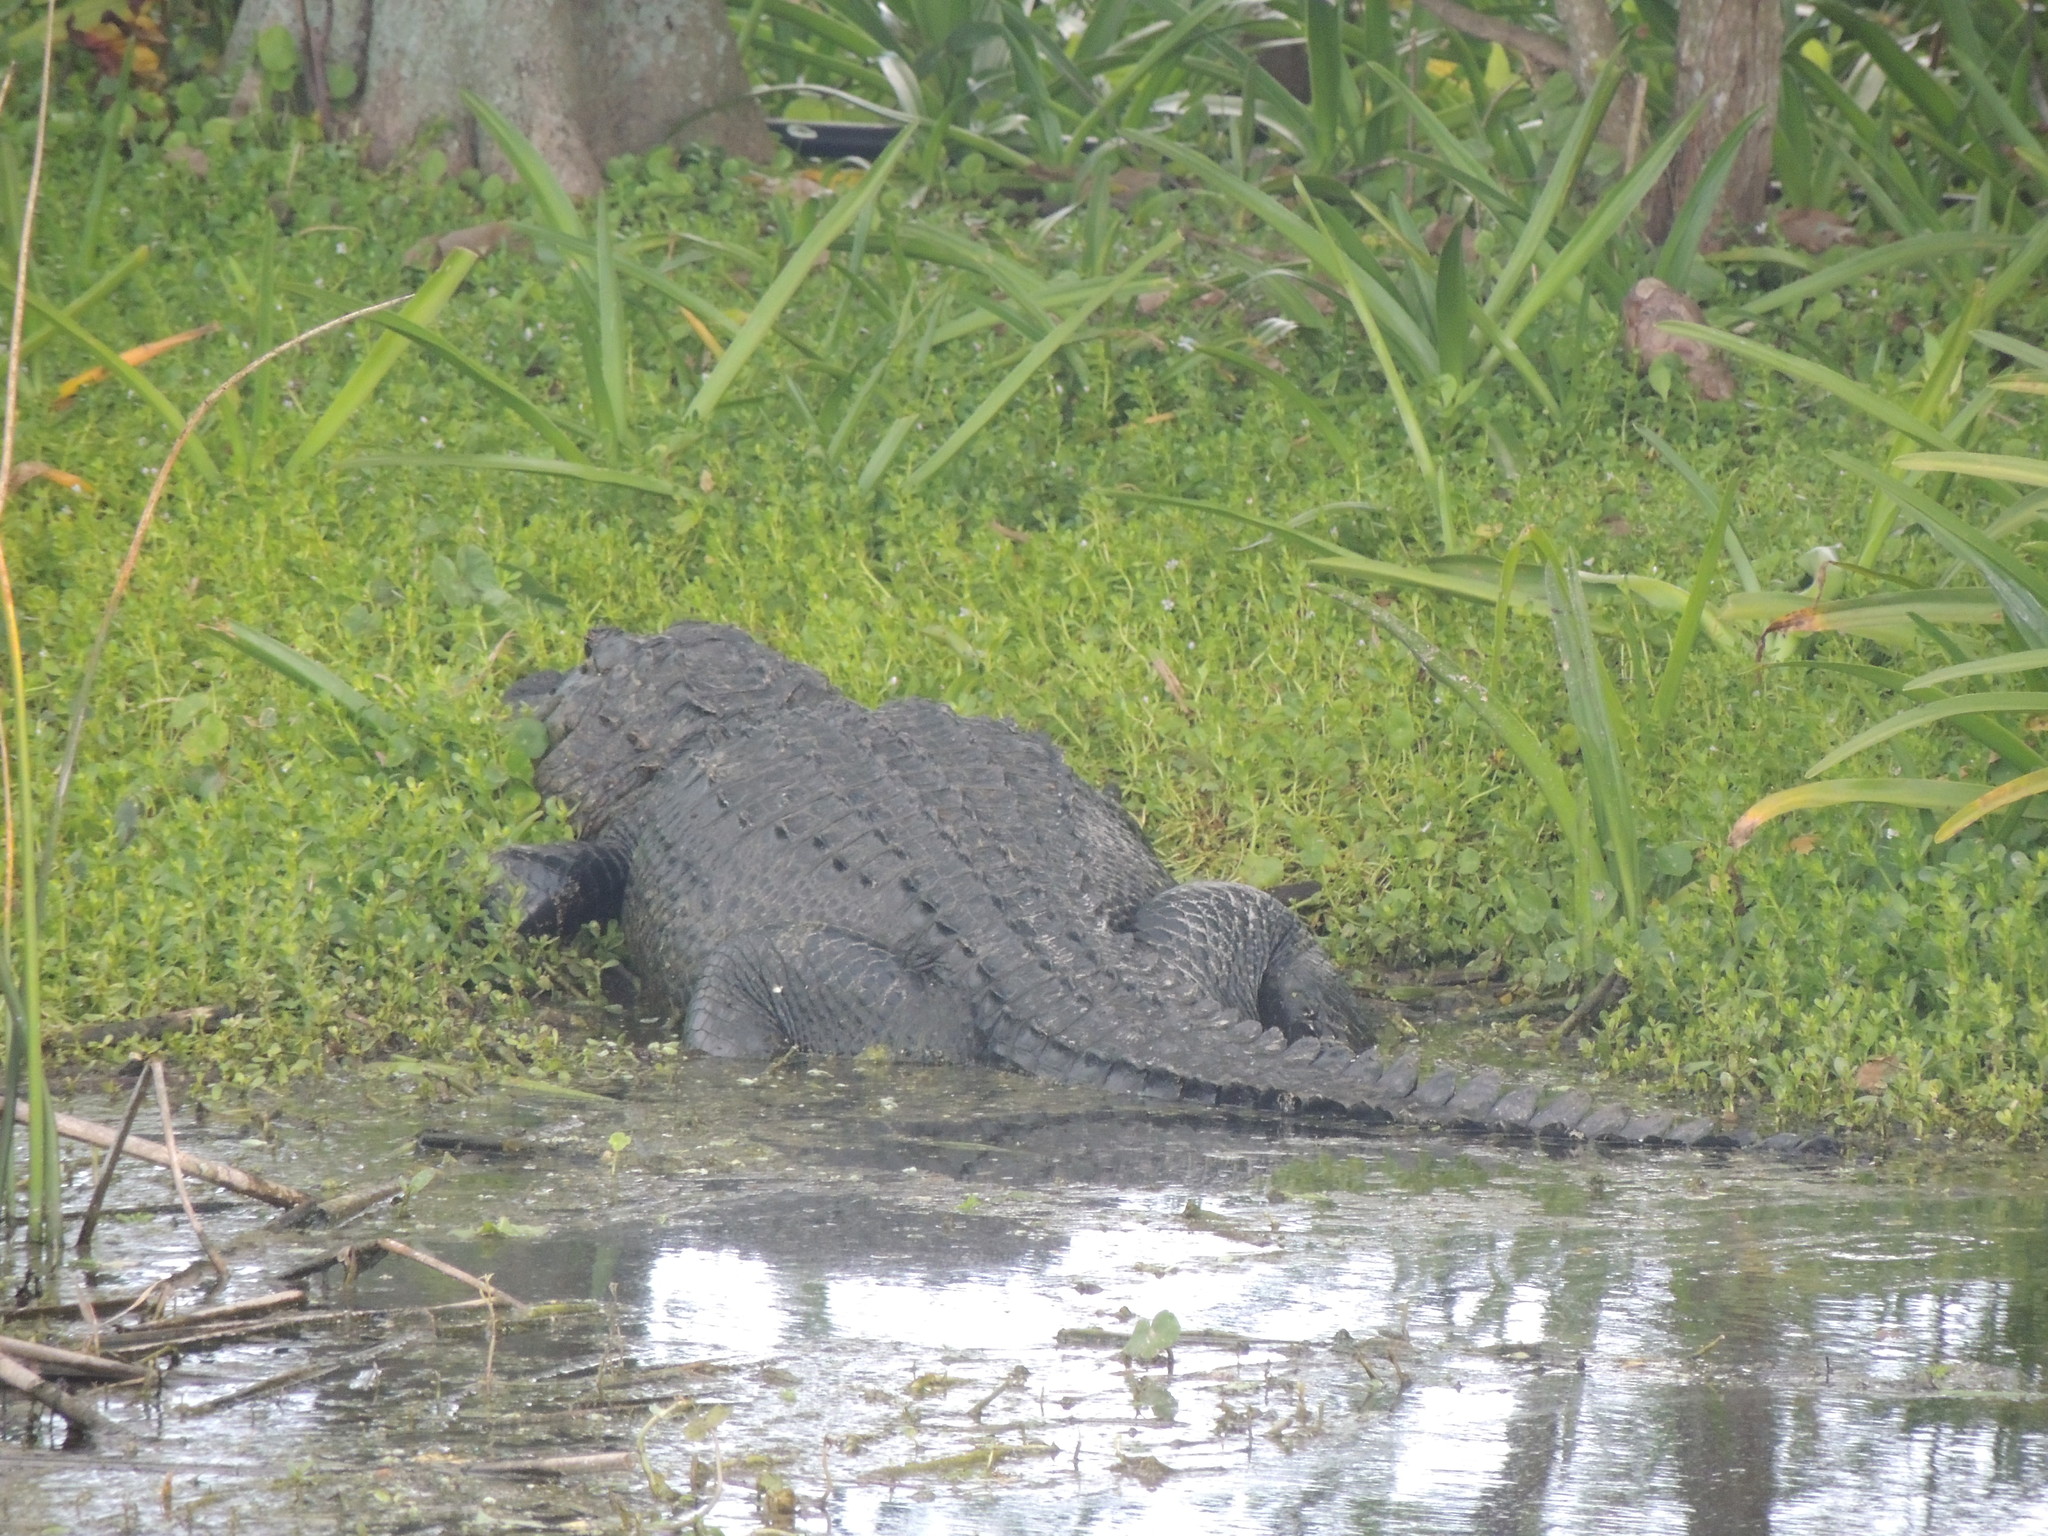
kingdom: Animalia
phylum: Chordata
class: Crocodylia
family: Alligatoridae
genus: Alligator
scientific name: Alligator mississippiensis
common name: American alligator
